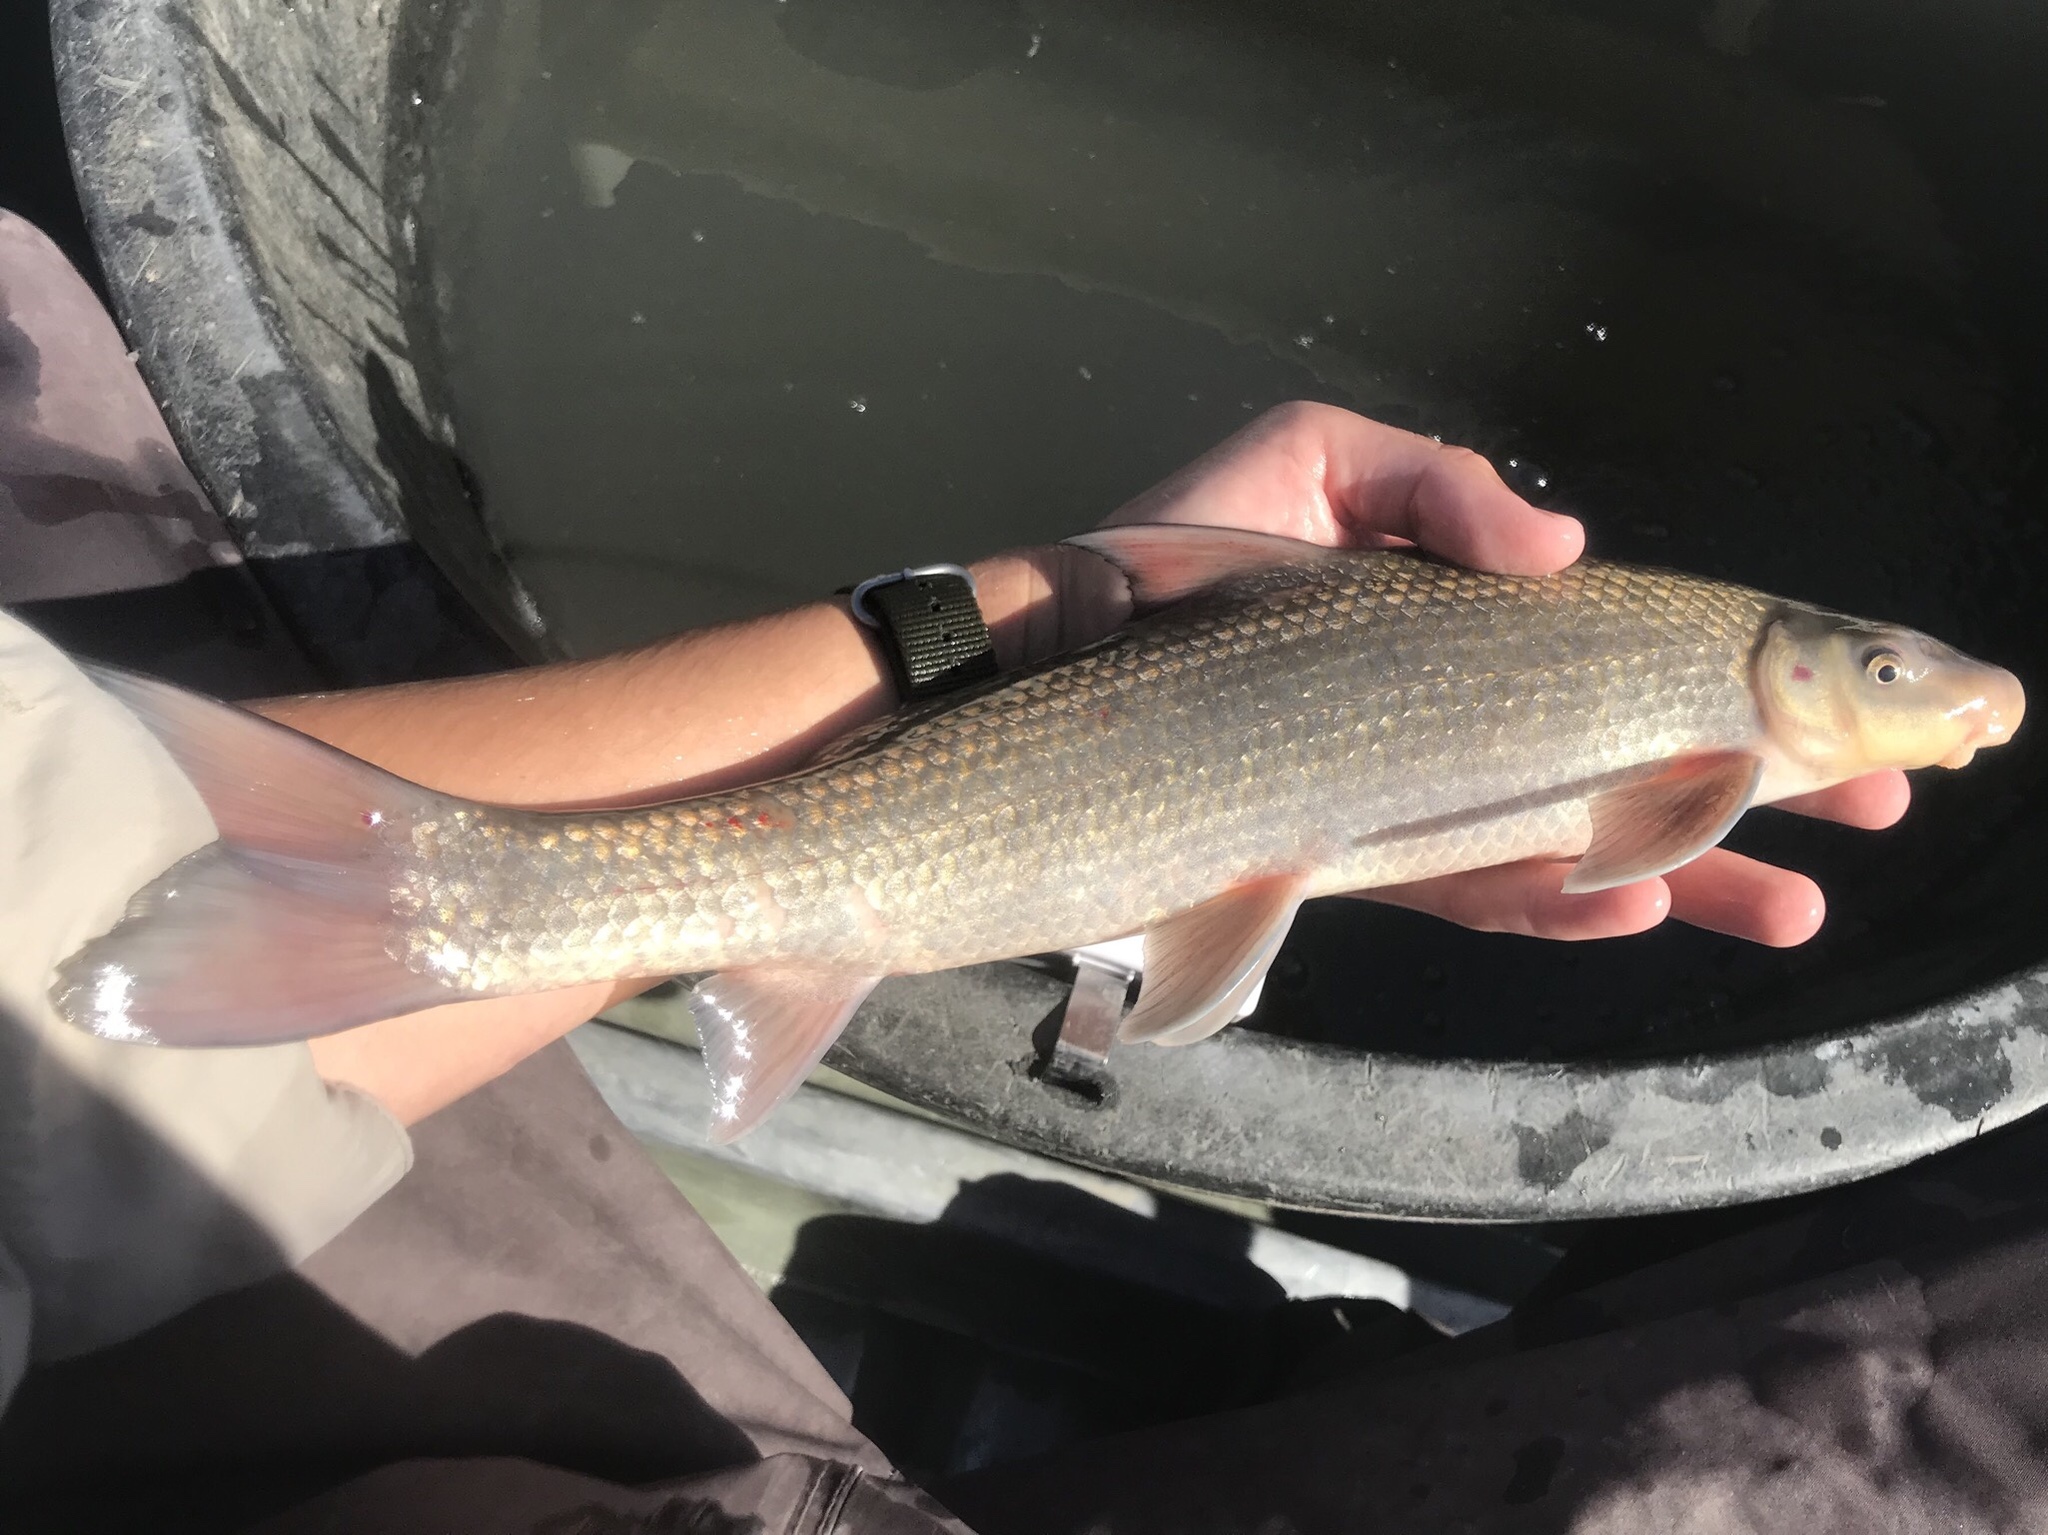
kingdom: Animalia
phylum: Chordata
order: Cypriniformes
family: Catostomidae
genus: Cycleptus
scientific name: Cycleptus elongatus
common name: Blue sucker
